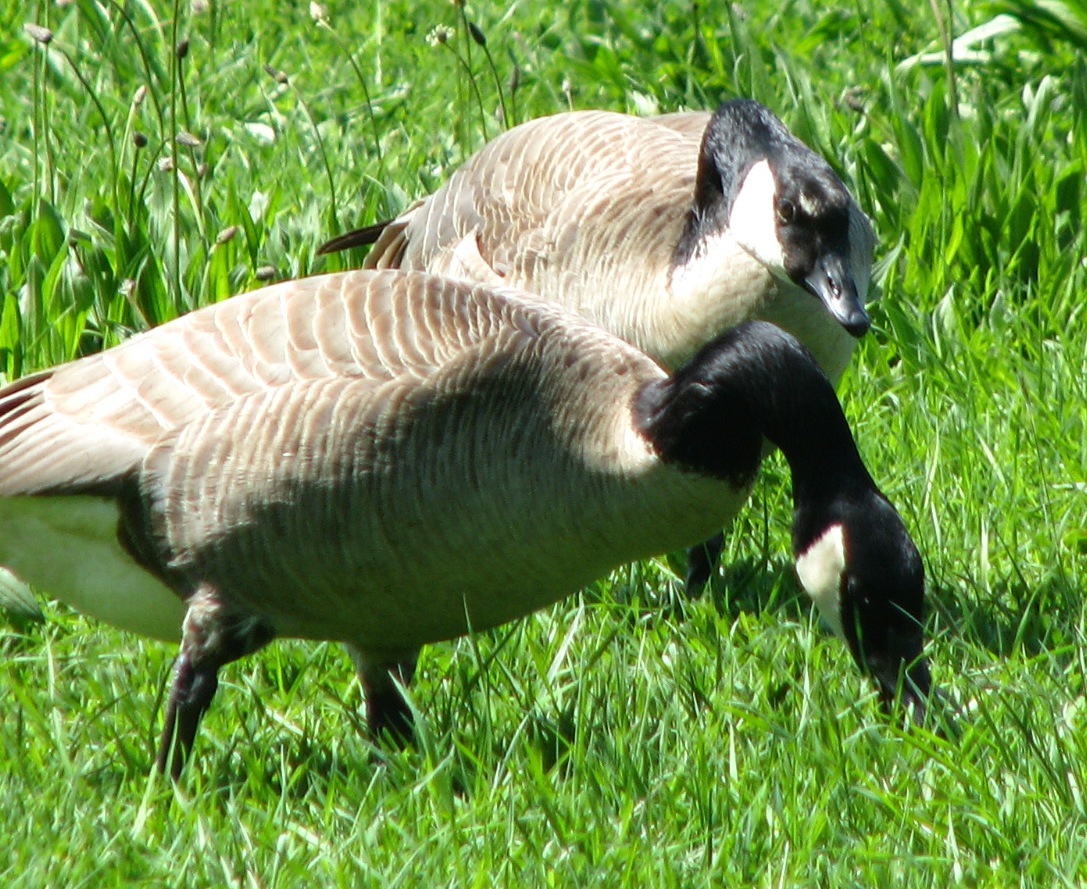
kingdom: Animalia
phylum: Chordata
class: Aves
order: Anseriformes
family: Anatidae
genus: Branta
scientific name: Branta canadensis
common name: Canada goose
